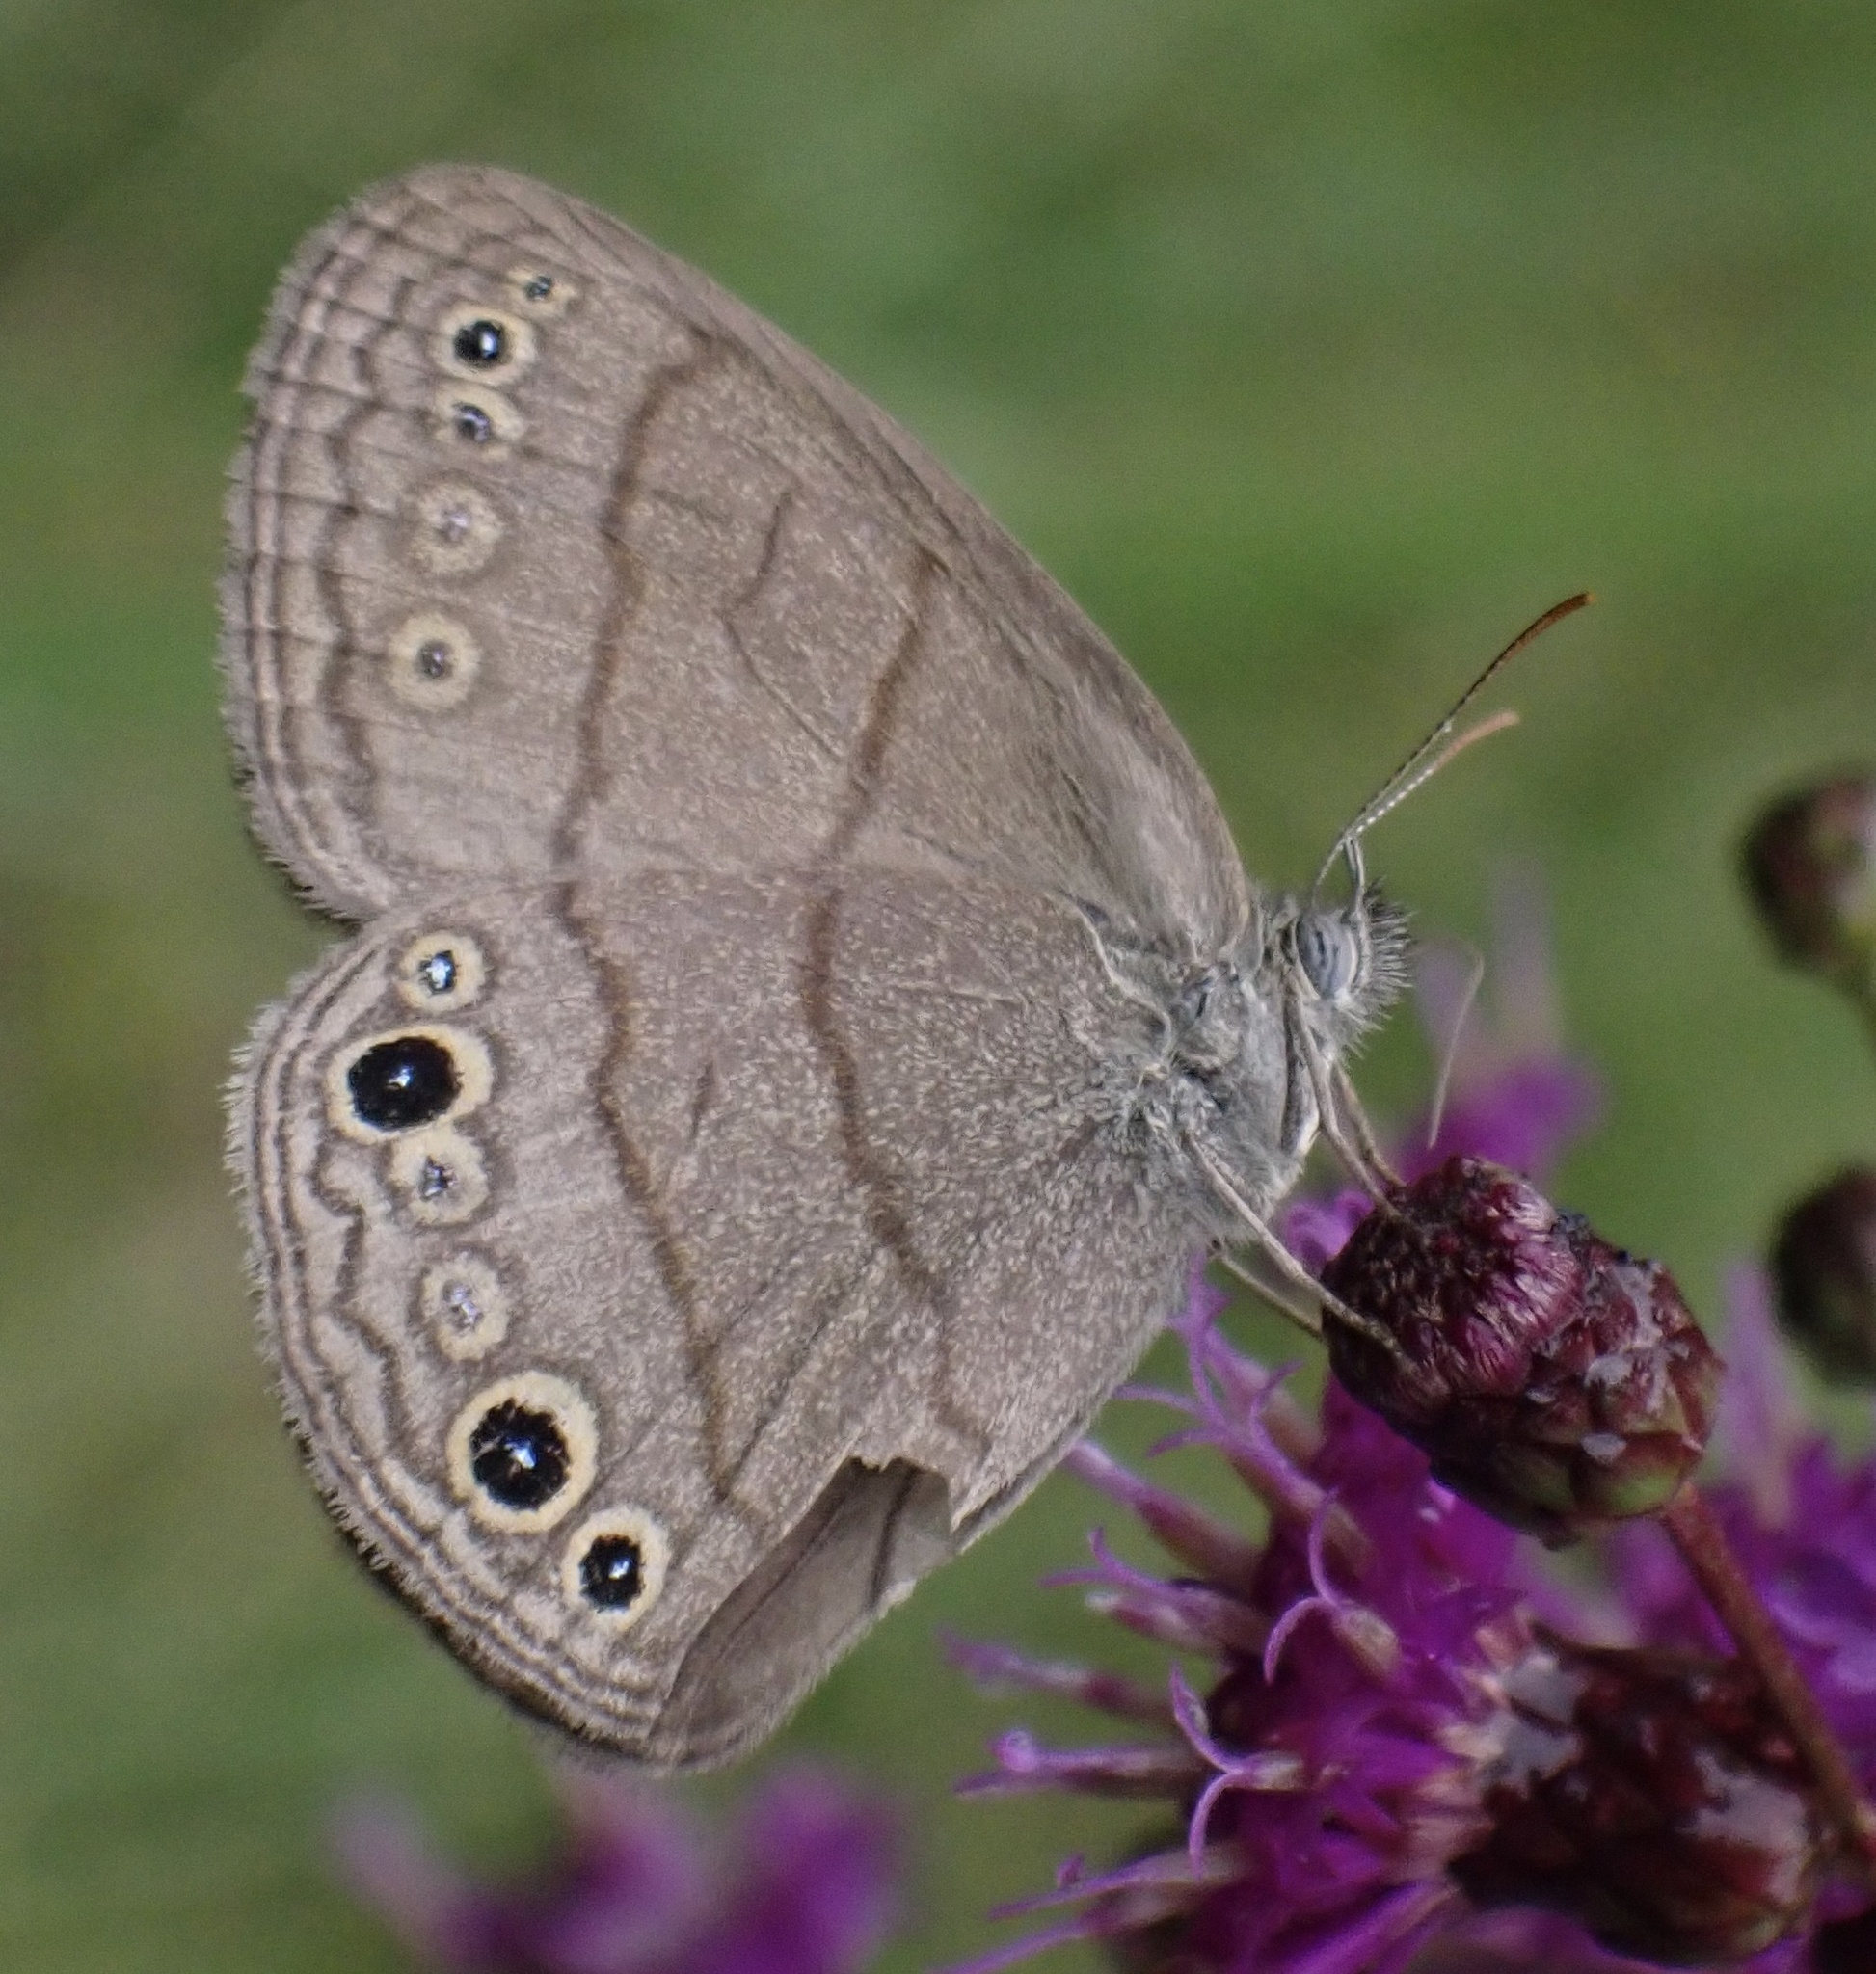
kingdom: Animalia
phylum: Arthropoda
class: Insecta
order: Lepidoptera
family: Nymphalidae
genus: Hermeuptychia
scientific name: Hermeuptychia hermes
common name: Hermes satyr
